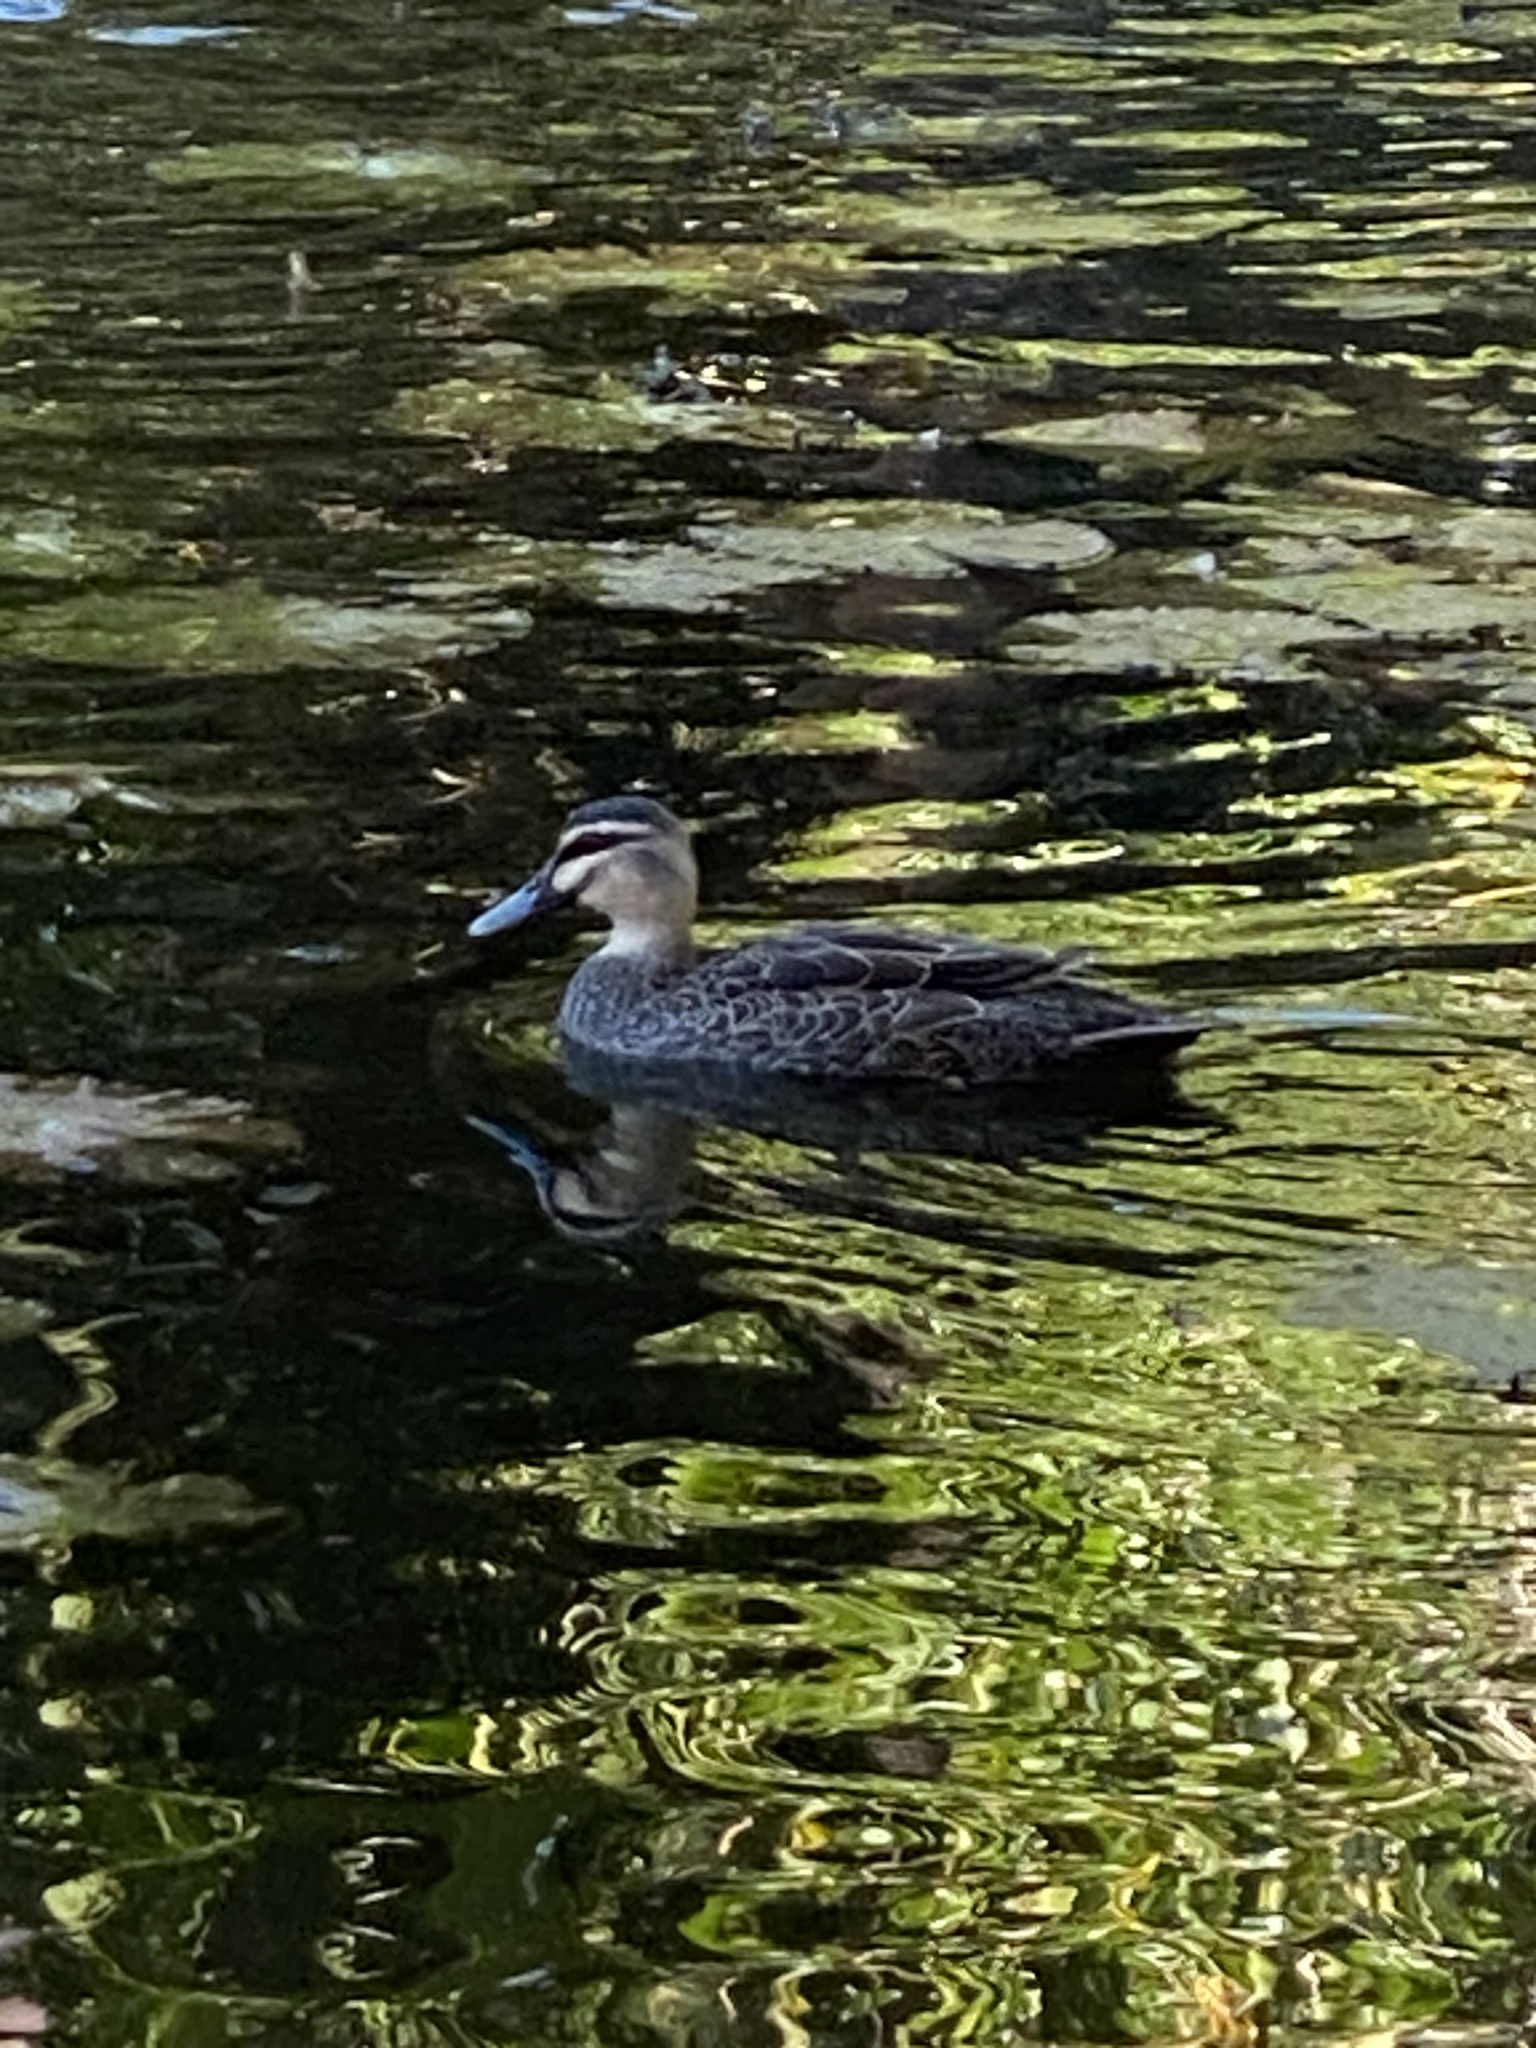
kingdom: Animalia
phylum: Chordata
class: Aves
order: Anseriformes
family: Anatidae
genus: Anas
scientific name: Anas superciliosa
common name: Pacific black duck
